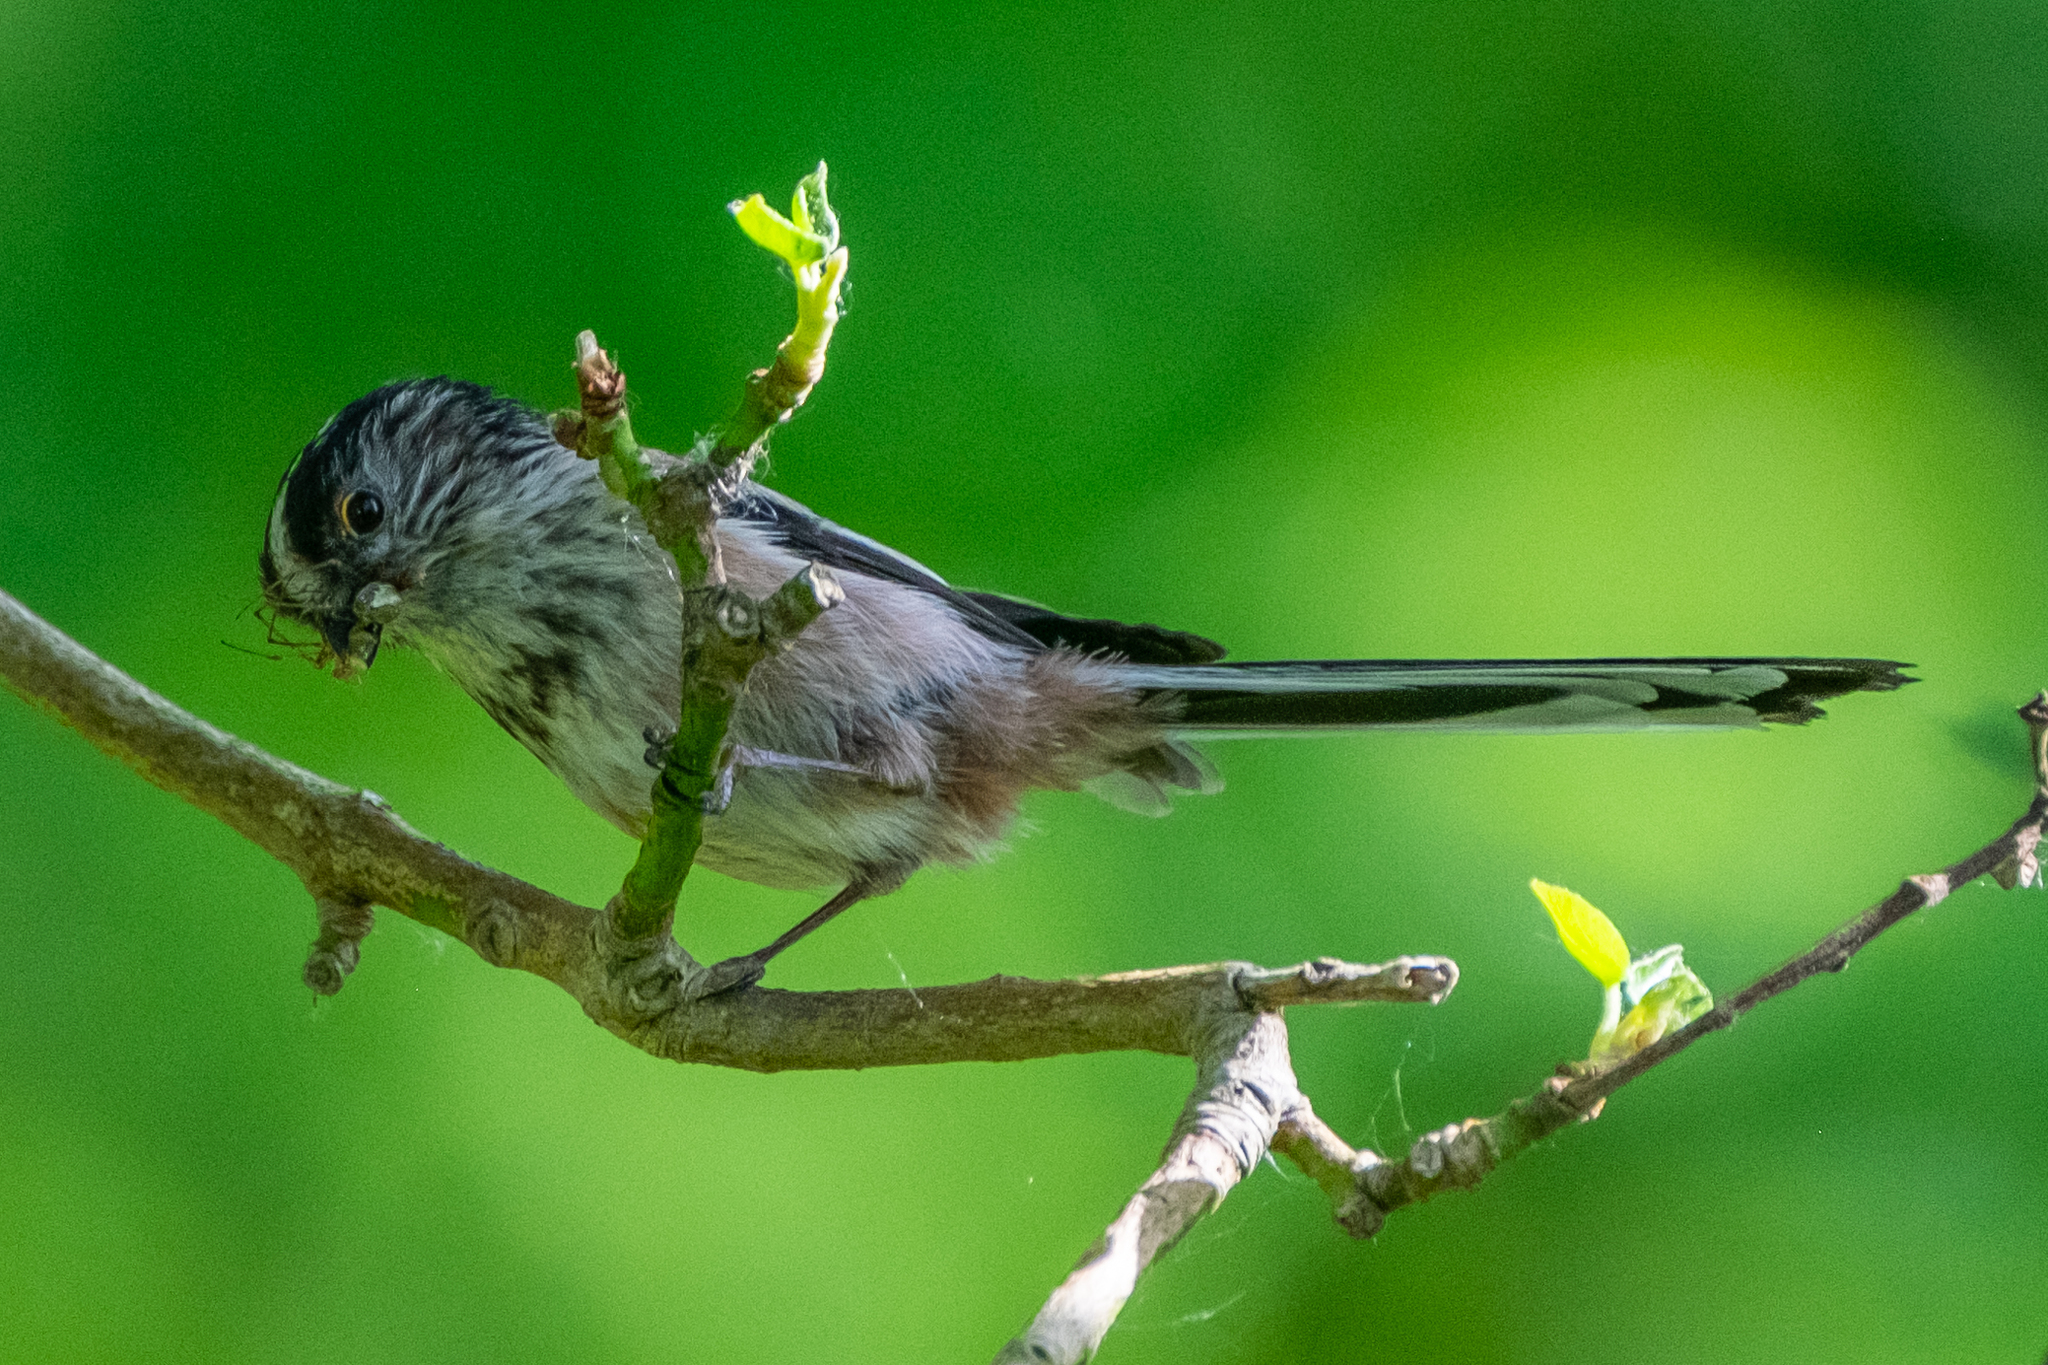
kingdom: Animalia
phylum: Chordata
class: Aves
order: Passeriformes
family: Aegithalidae
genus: Aegithalos
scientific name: Aegithalos caudatus
